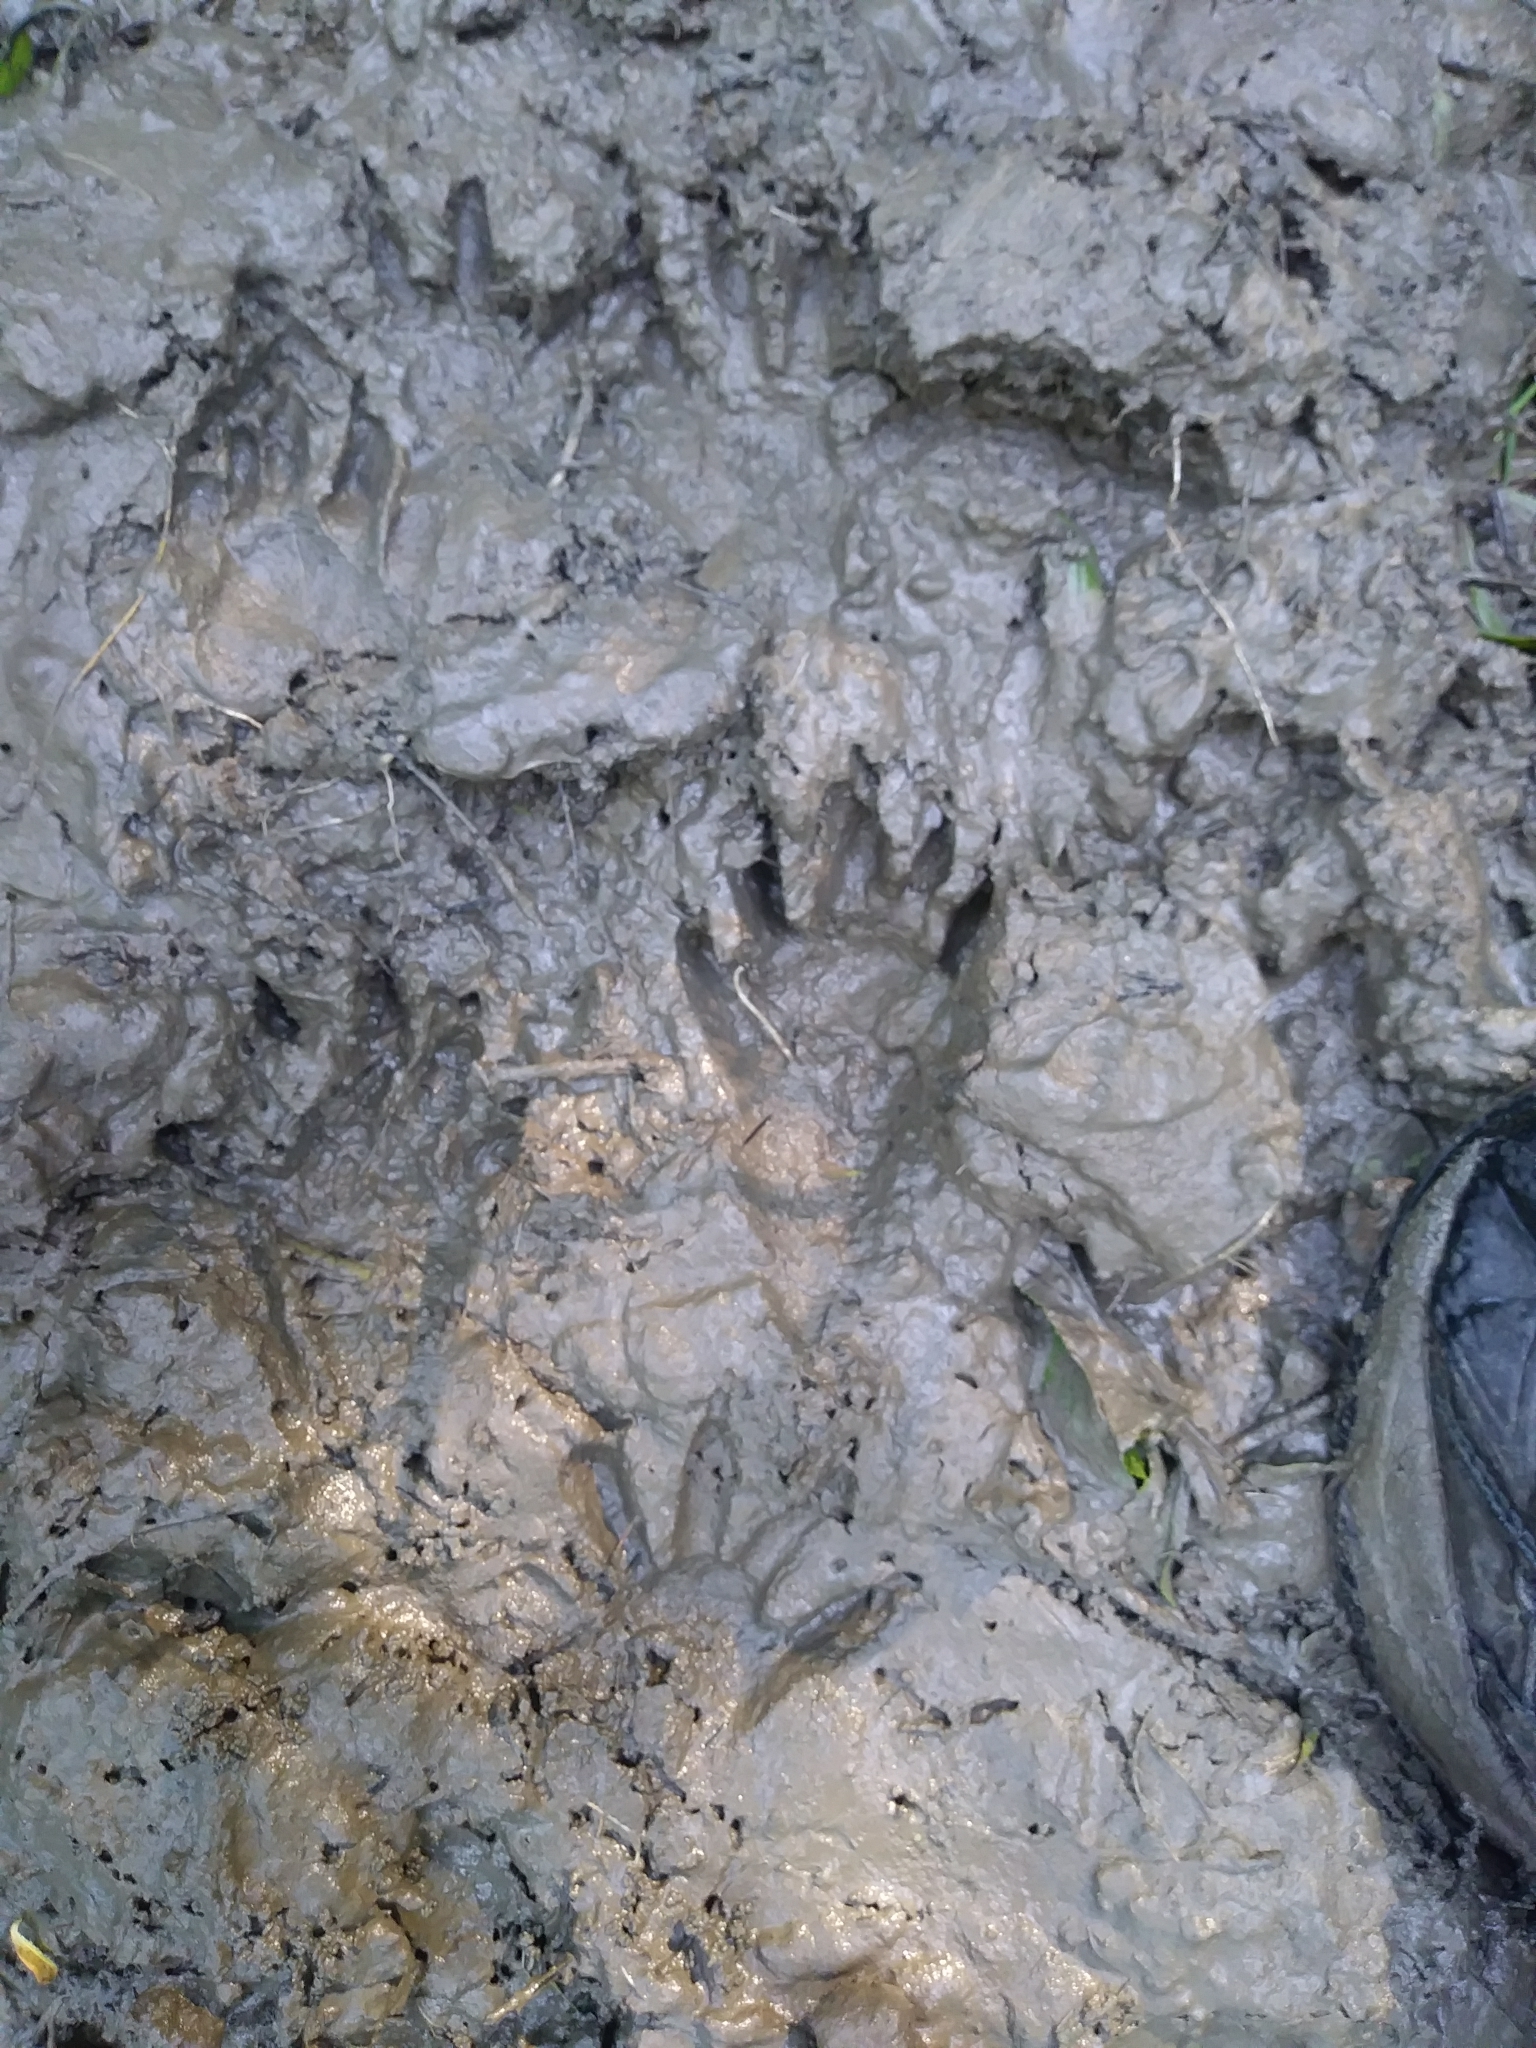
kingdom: Animalia
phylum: Chordata
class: Mammalia
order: Carnivora
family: Procyonidae
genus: Procyon
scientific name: Procyon lotor
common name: Raccoon
